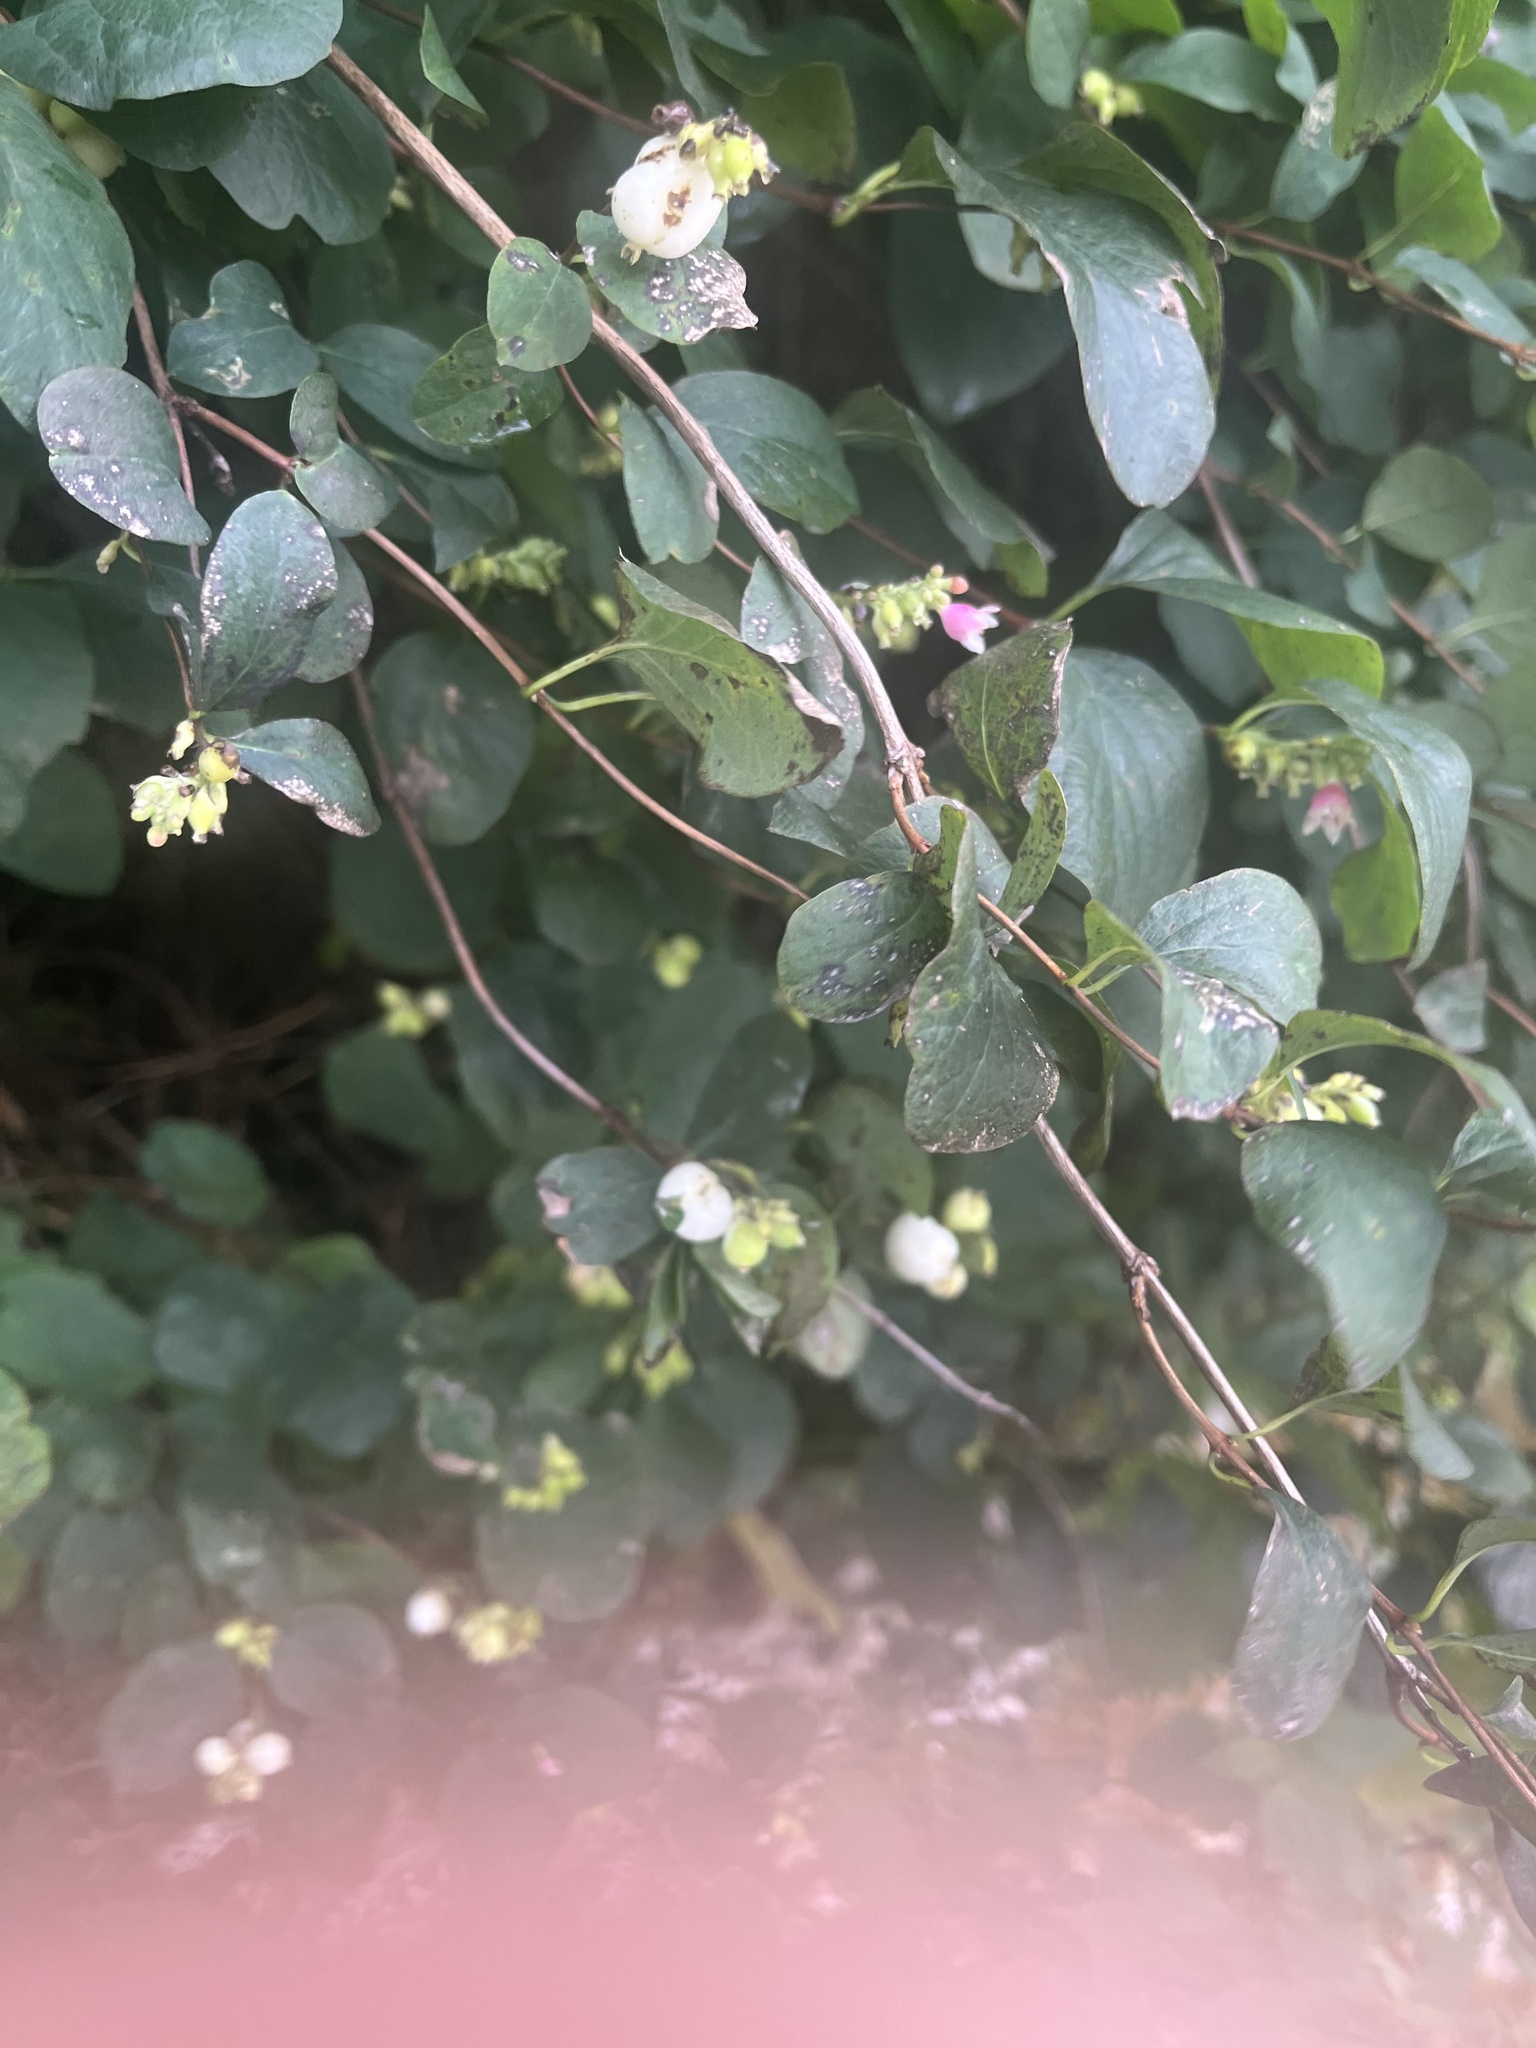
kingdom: Plantae
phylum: Tracheophyta
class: Magnoliopsida
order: Dipsacales
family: Caprifoliaceae
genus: Symphoricarpos
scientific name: Symphoricarpos albus
